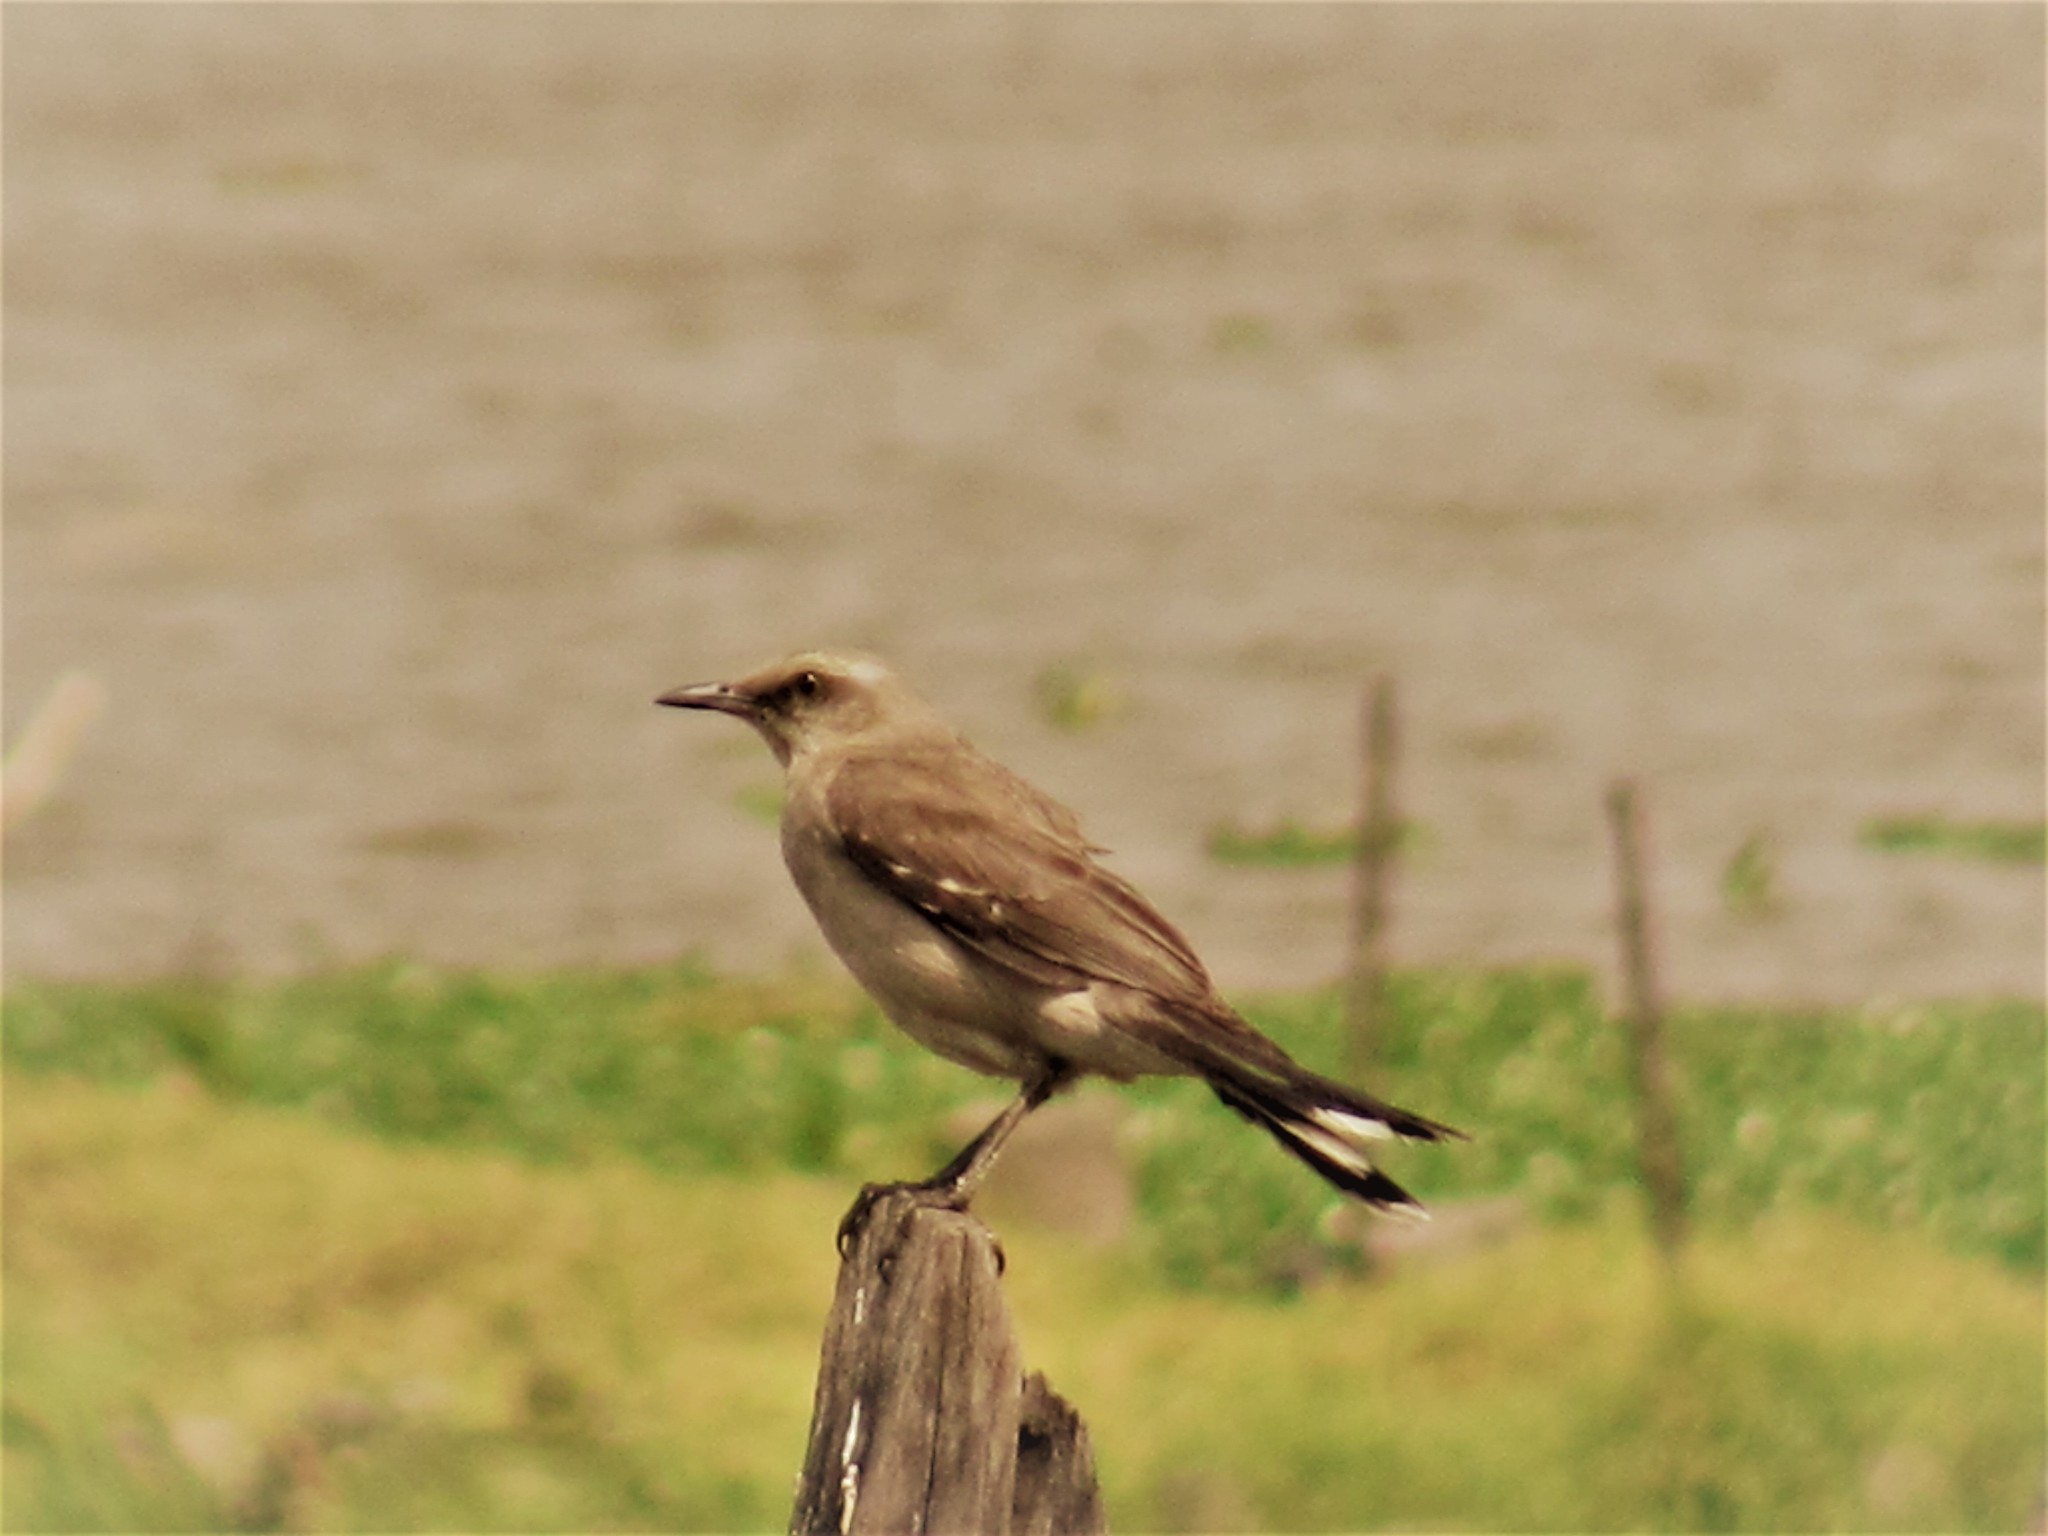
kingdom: Animalia
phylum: Chordata
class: Aves
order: Passeriformes
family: Mimidae
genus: Mimus
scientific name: Mimus gilvus
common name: Tropical mockingbird
